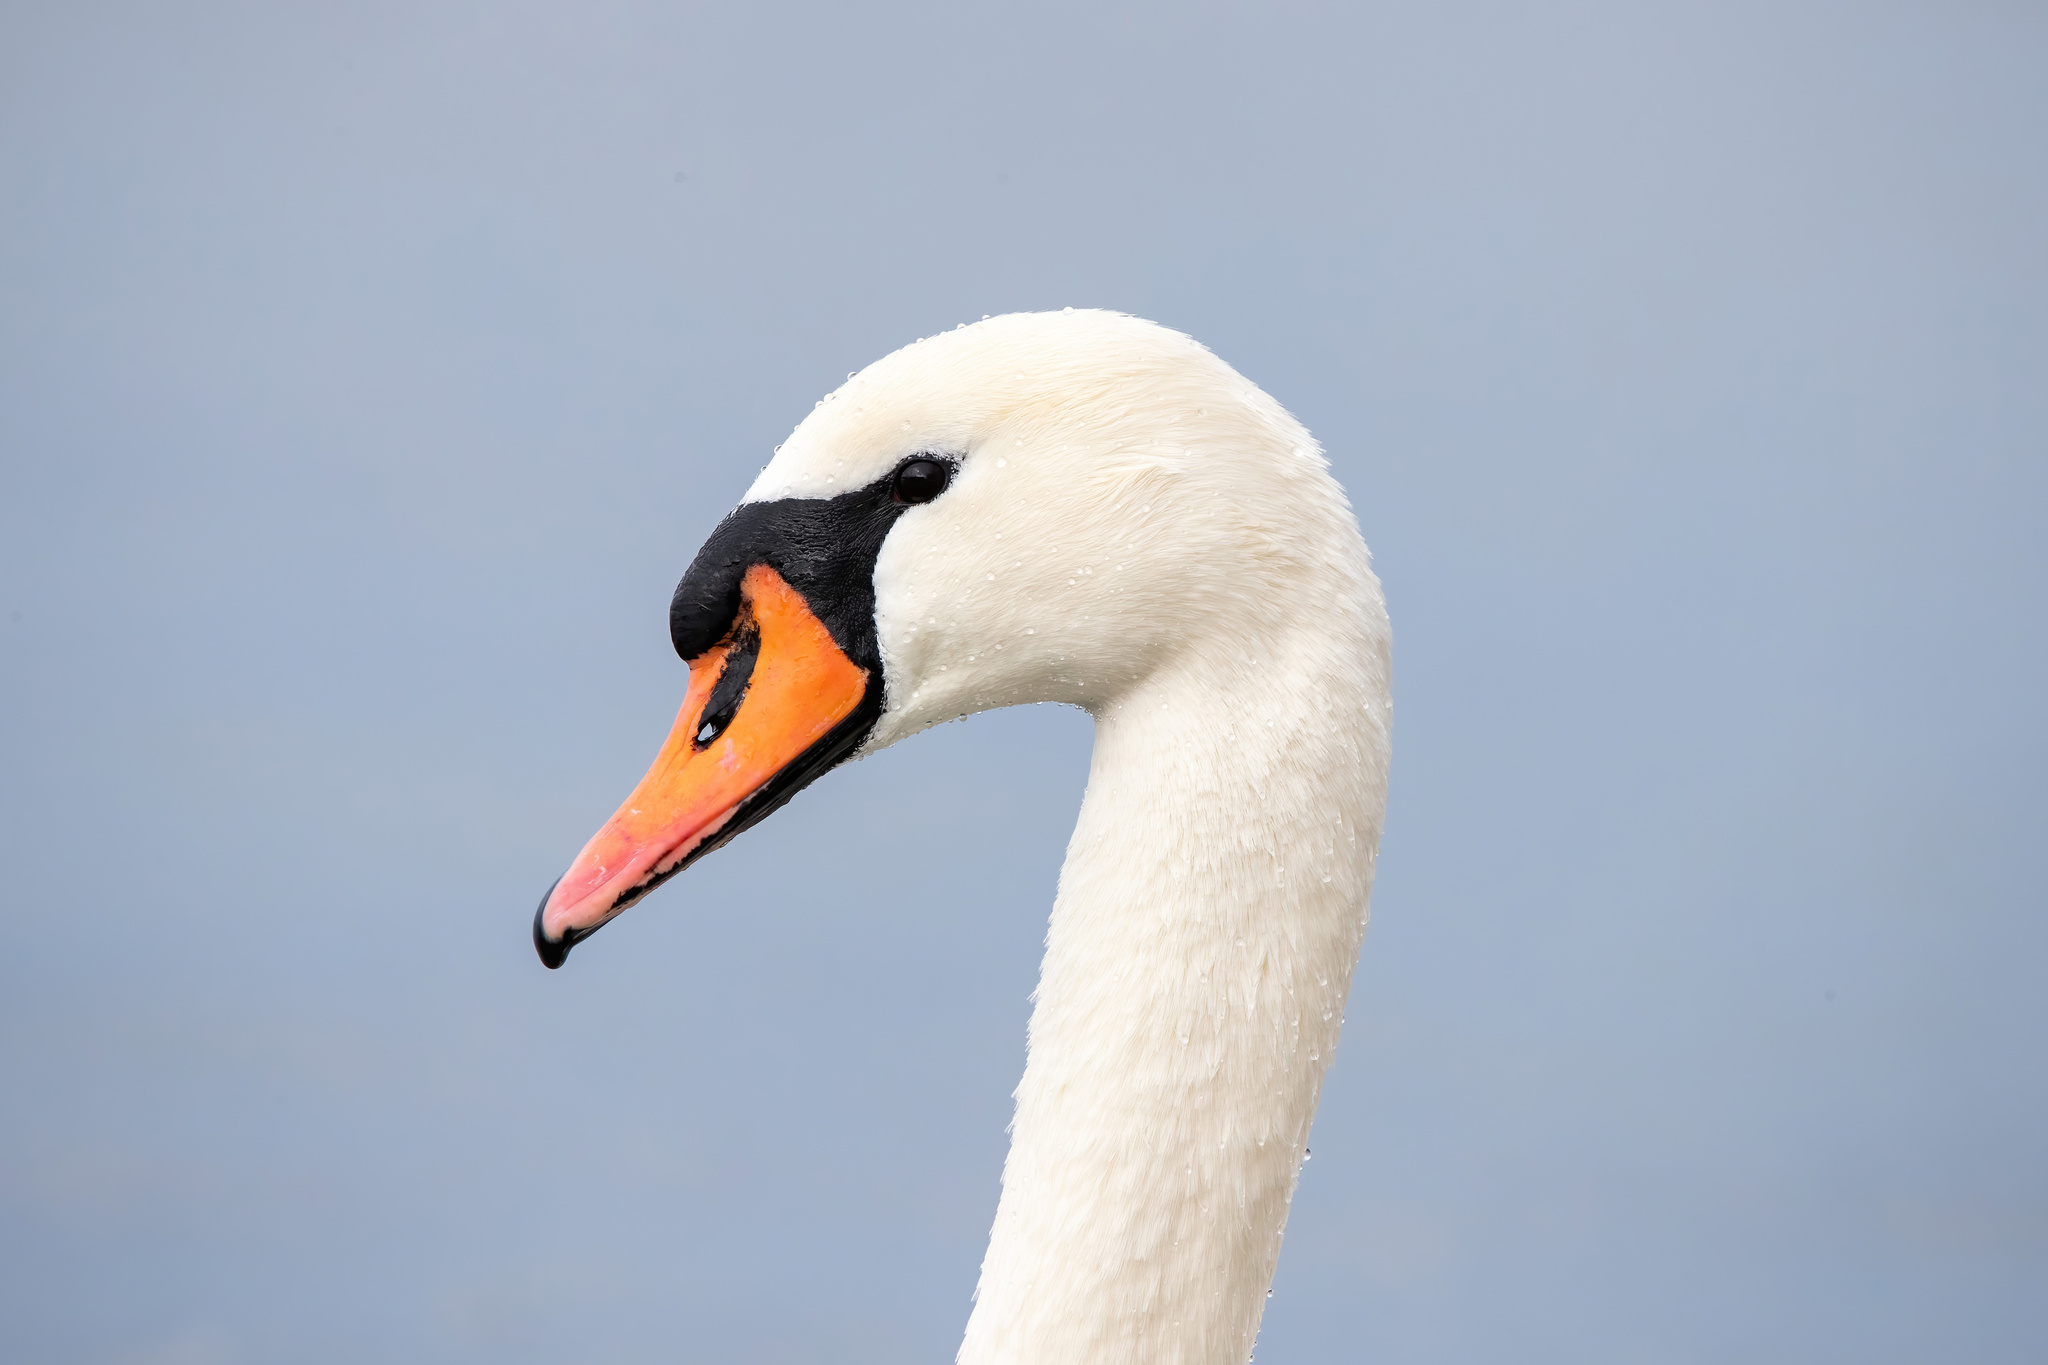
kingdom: Animalia
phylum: Chordata
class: Aves
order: Anseriformes
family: Anatidae
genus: Cygnus
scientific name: Cygnus olor
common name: Mute swan
